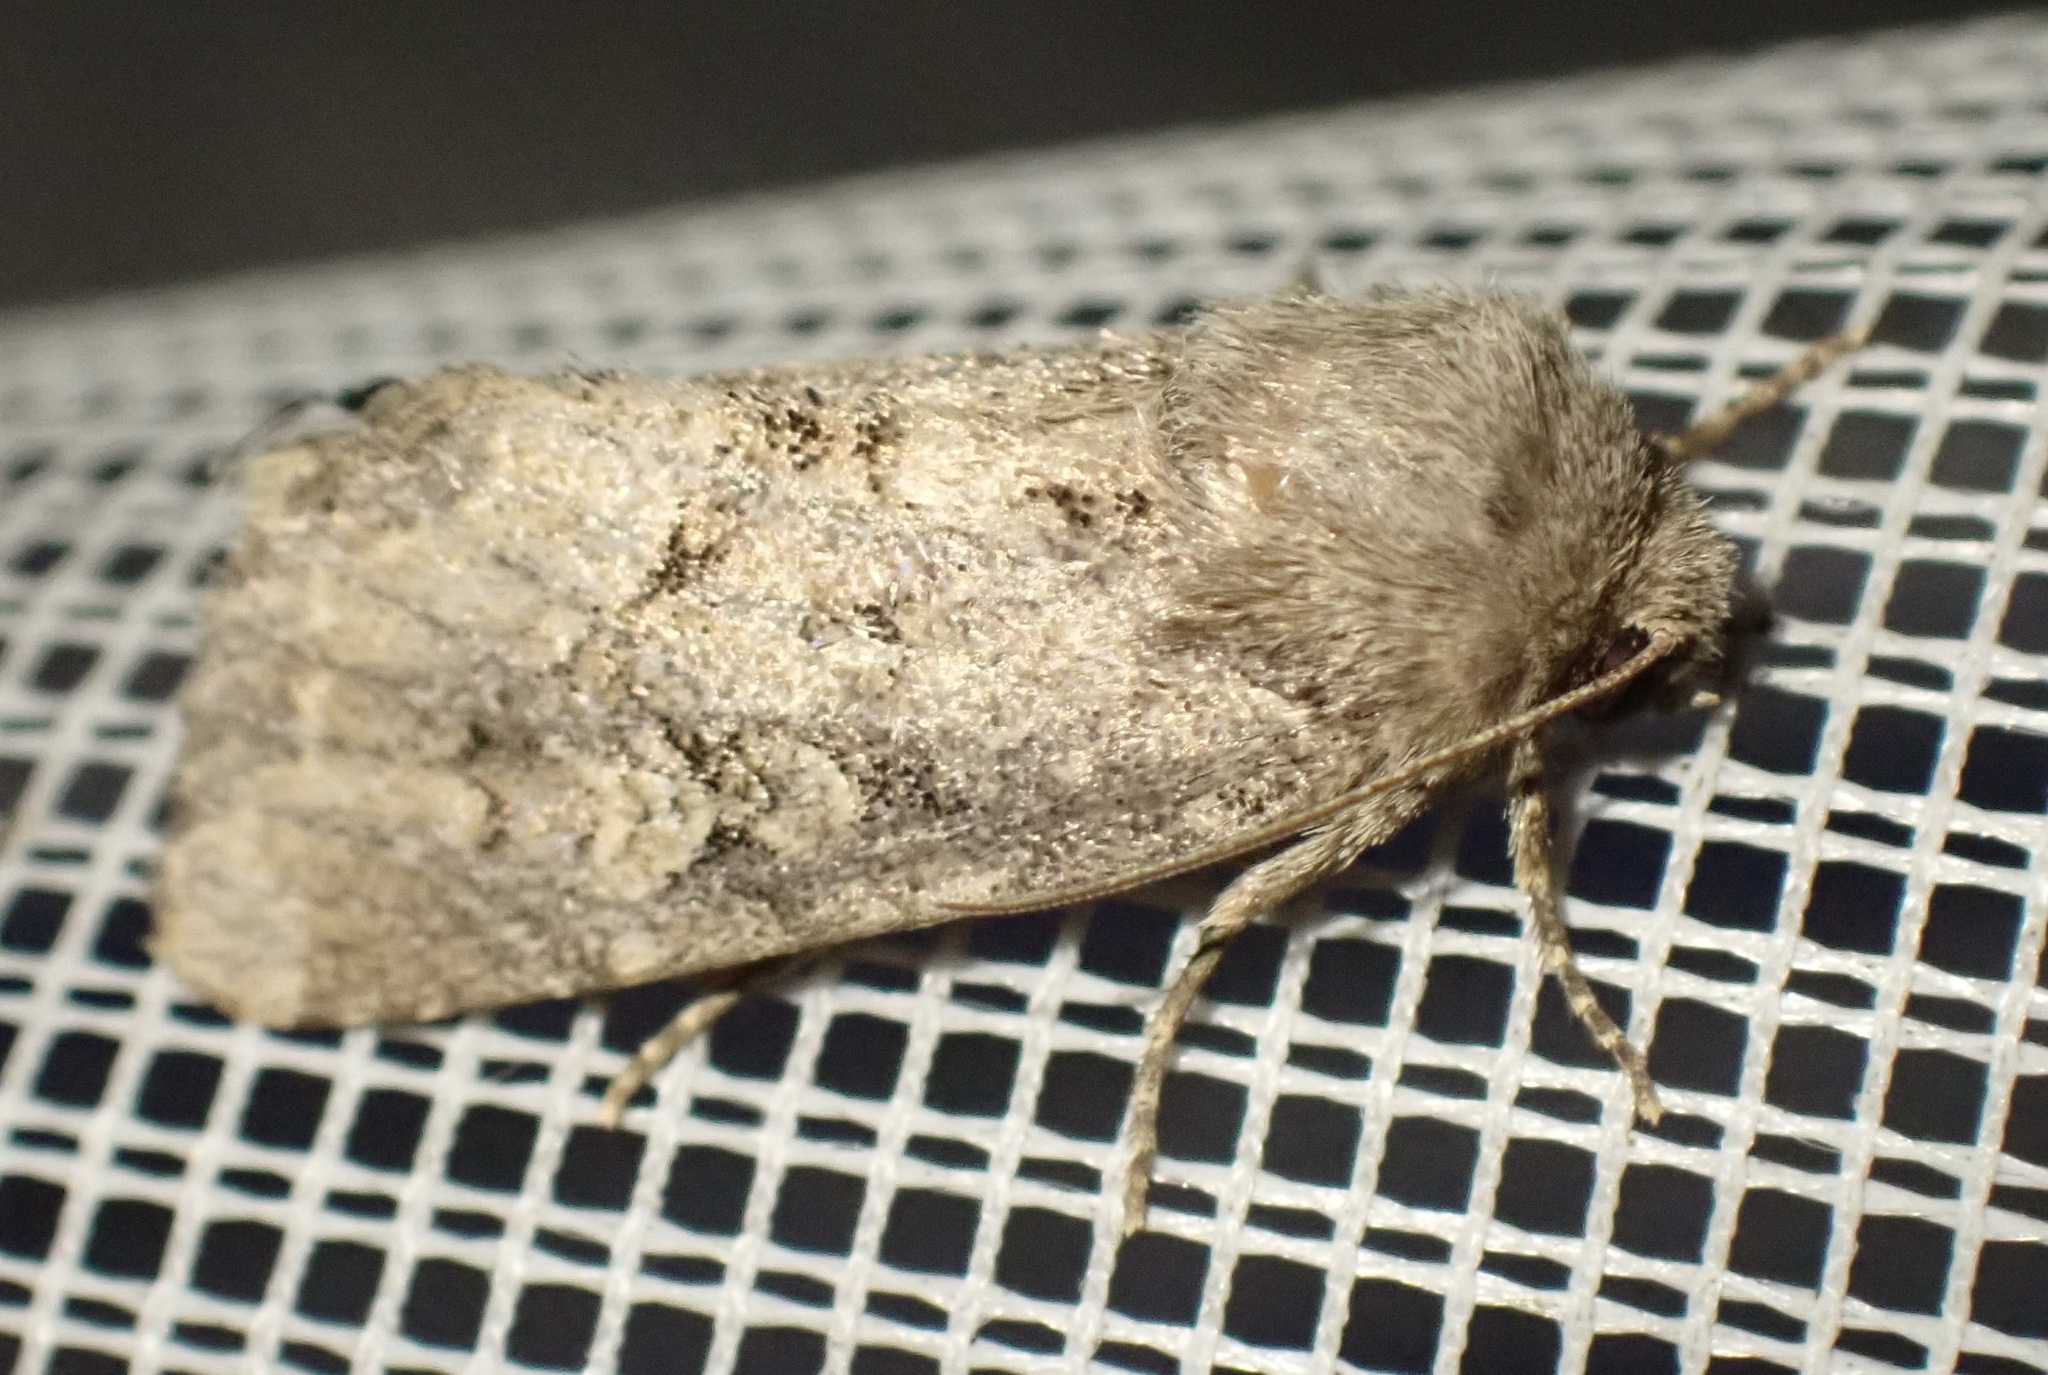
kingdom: Animalia
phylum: Arthropoda
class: Insecta
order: Lepidoptera
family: Noctuidae
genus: Luperina
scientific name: Luperina testacea
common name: Flounced rustic
